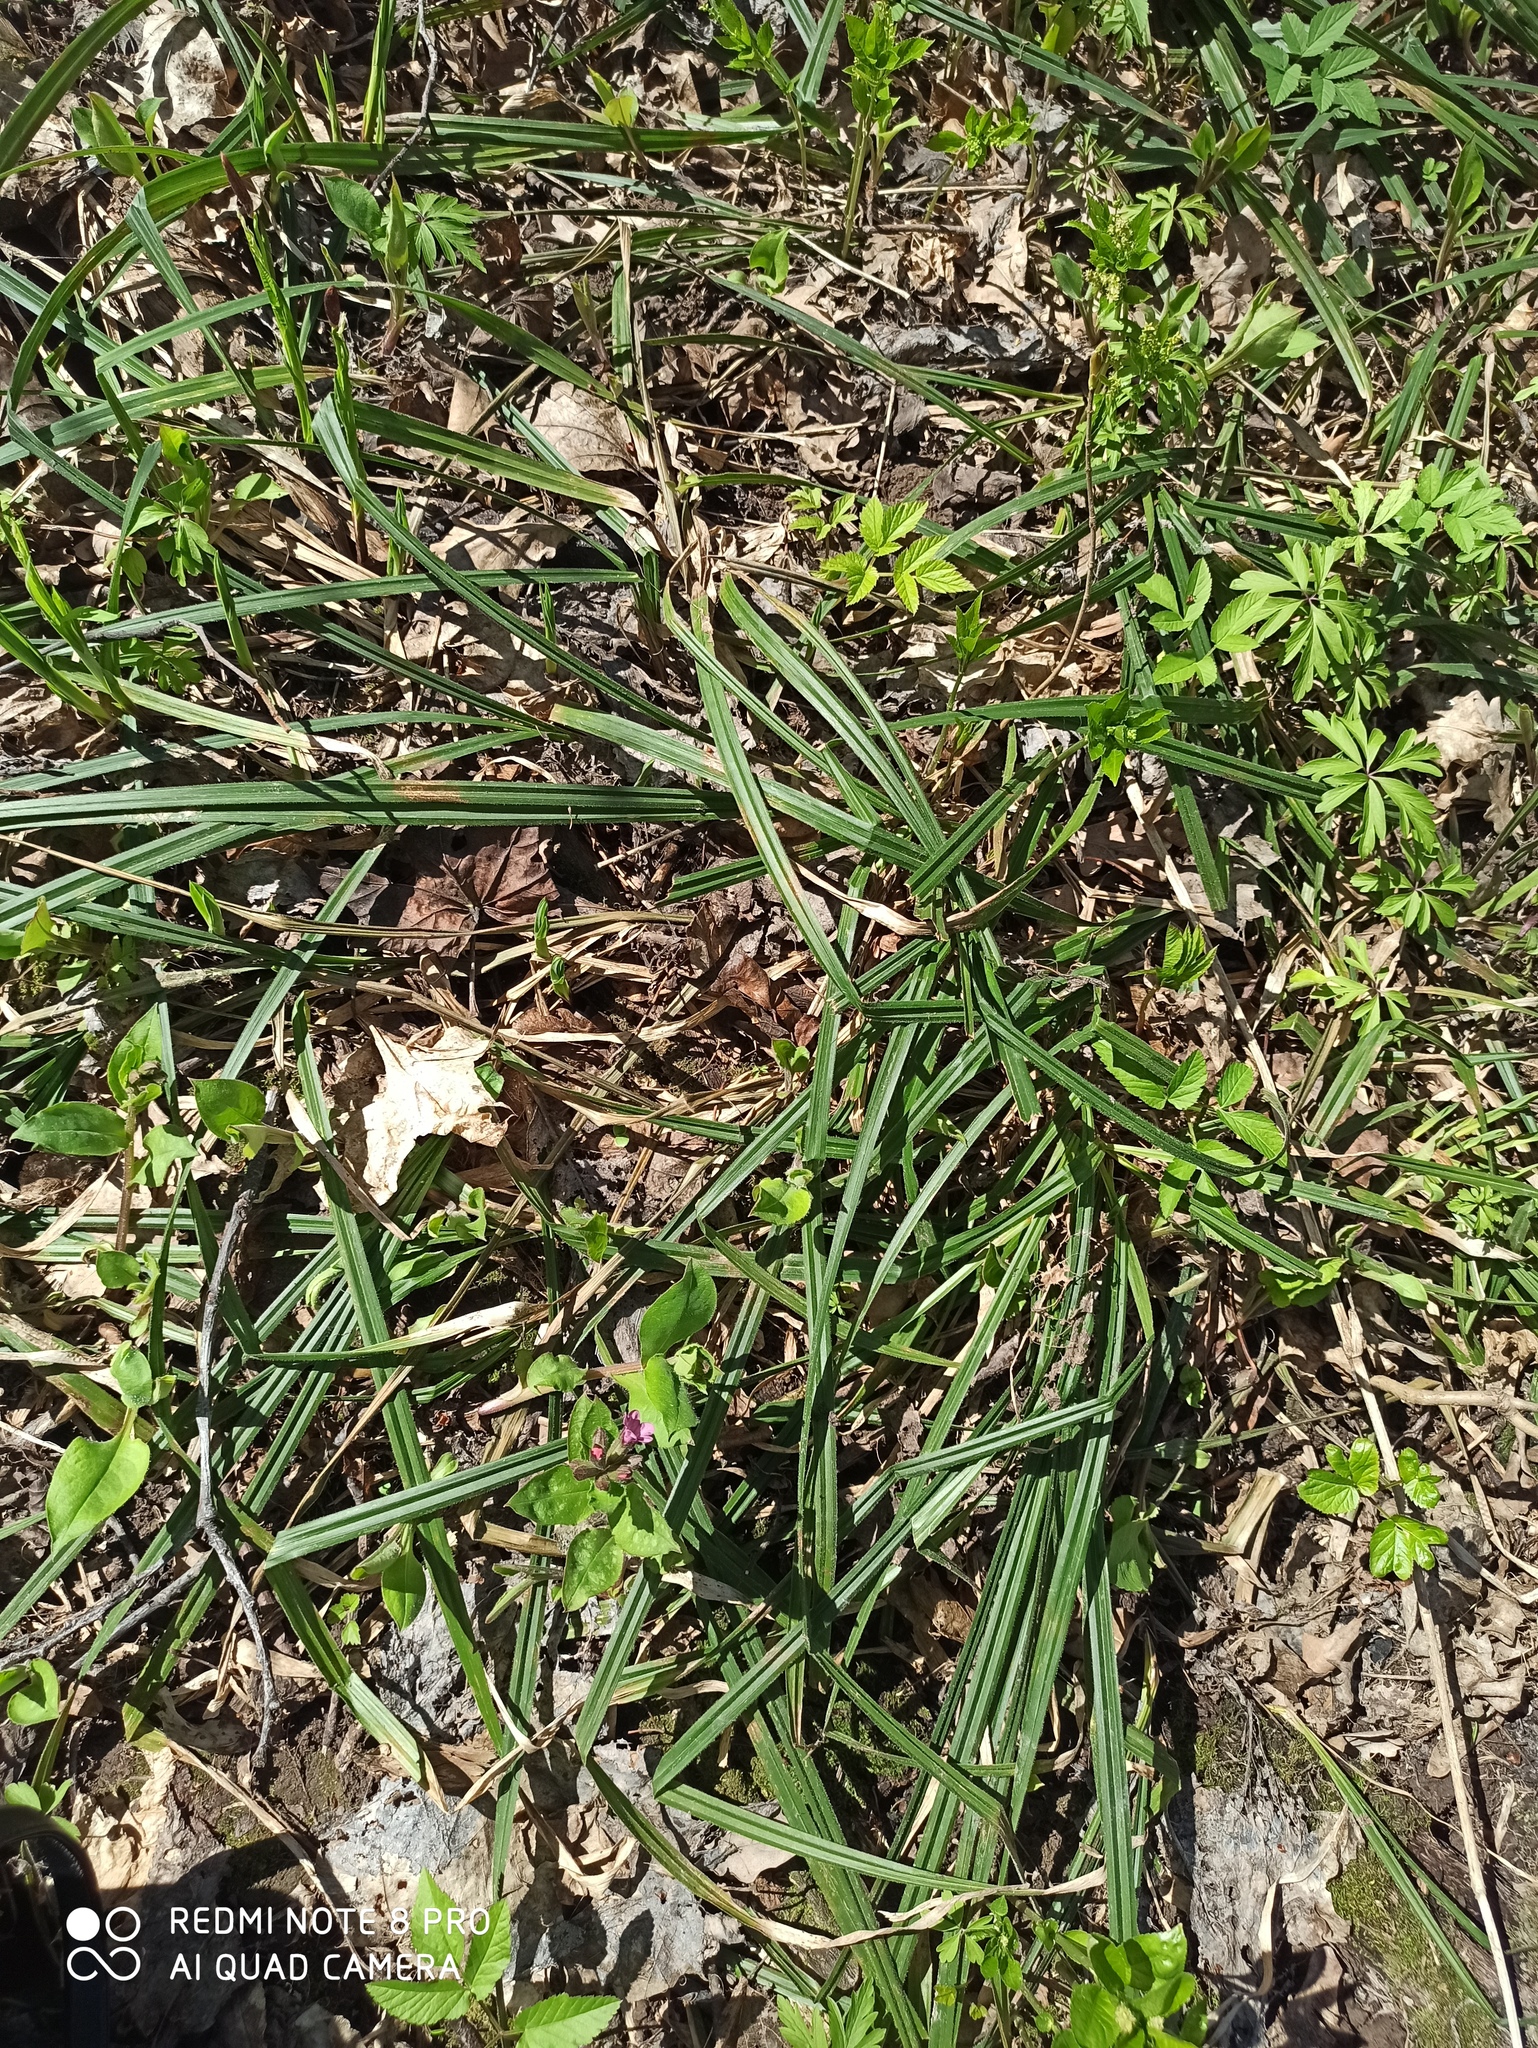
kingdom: Plantae
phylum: Tracheophyta
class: Liliopsida
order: Poales
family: Cyperaceae
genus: Carex
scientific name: Carex pilosa
